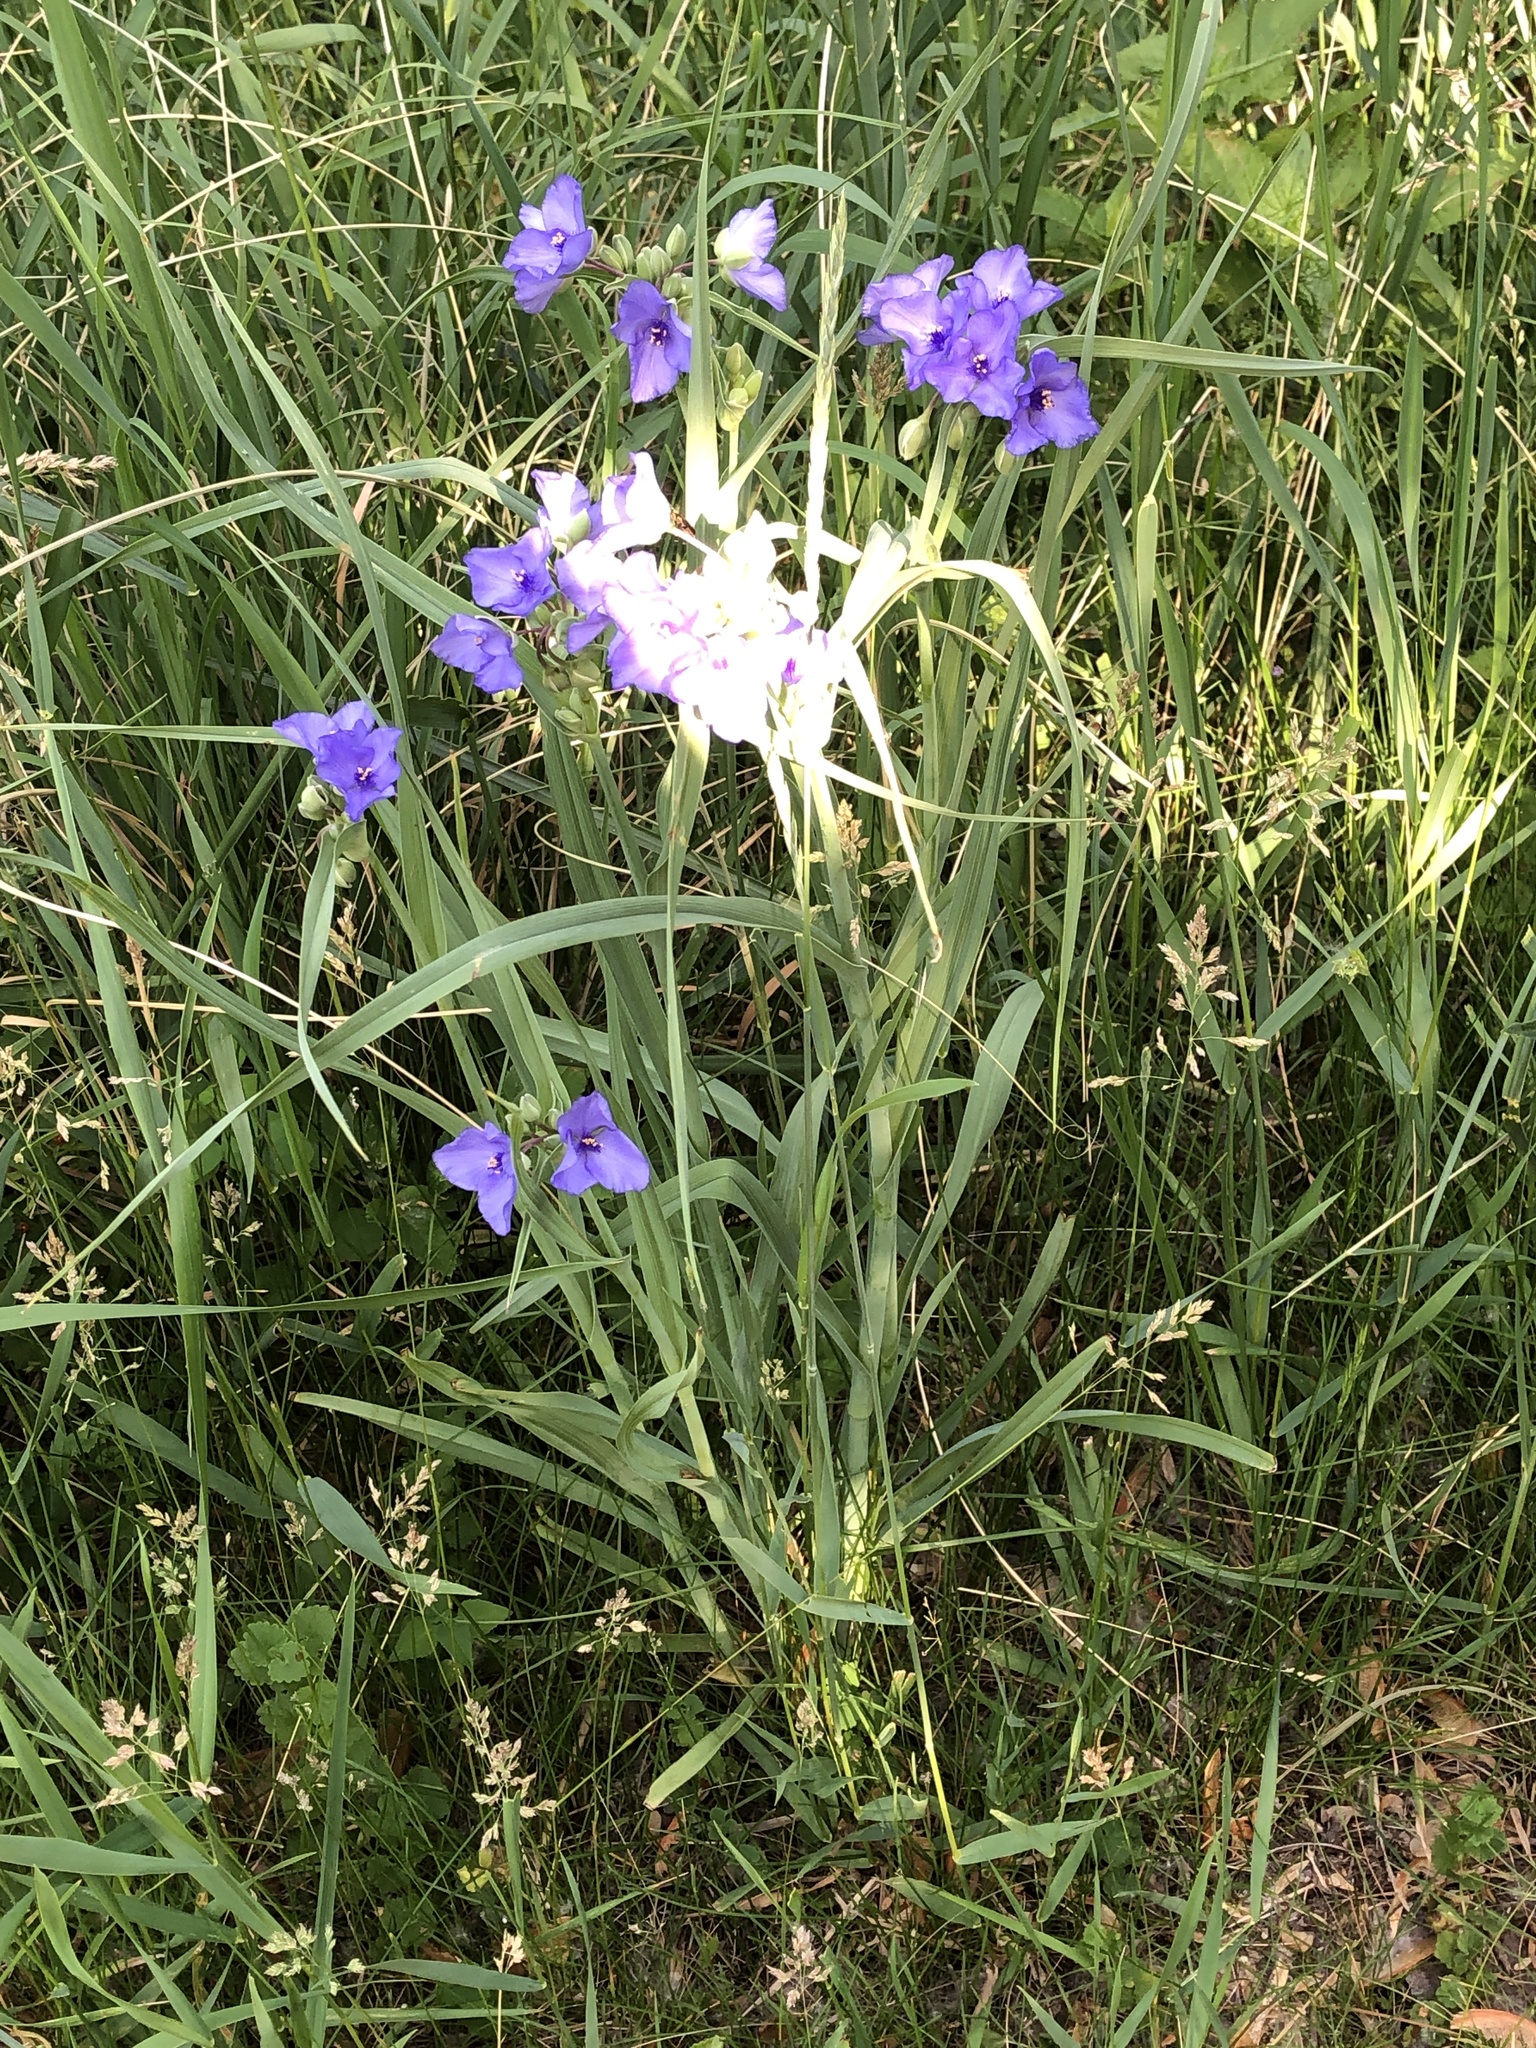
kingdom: Plantae
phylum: Tracheophyta
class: Liliopsida
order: Commelinales
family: Commelinaceae
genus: Tradescantia
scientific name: Tradescantia ohiensis
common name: Ohio spiderwort
